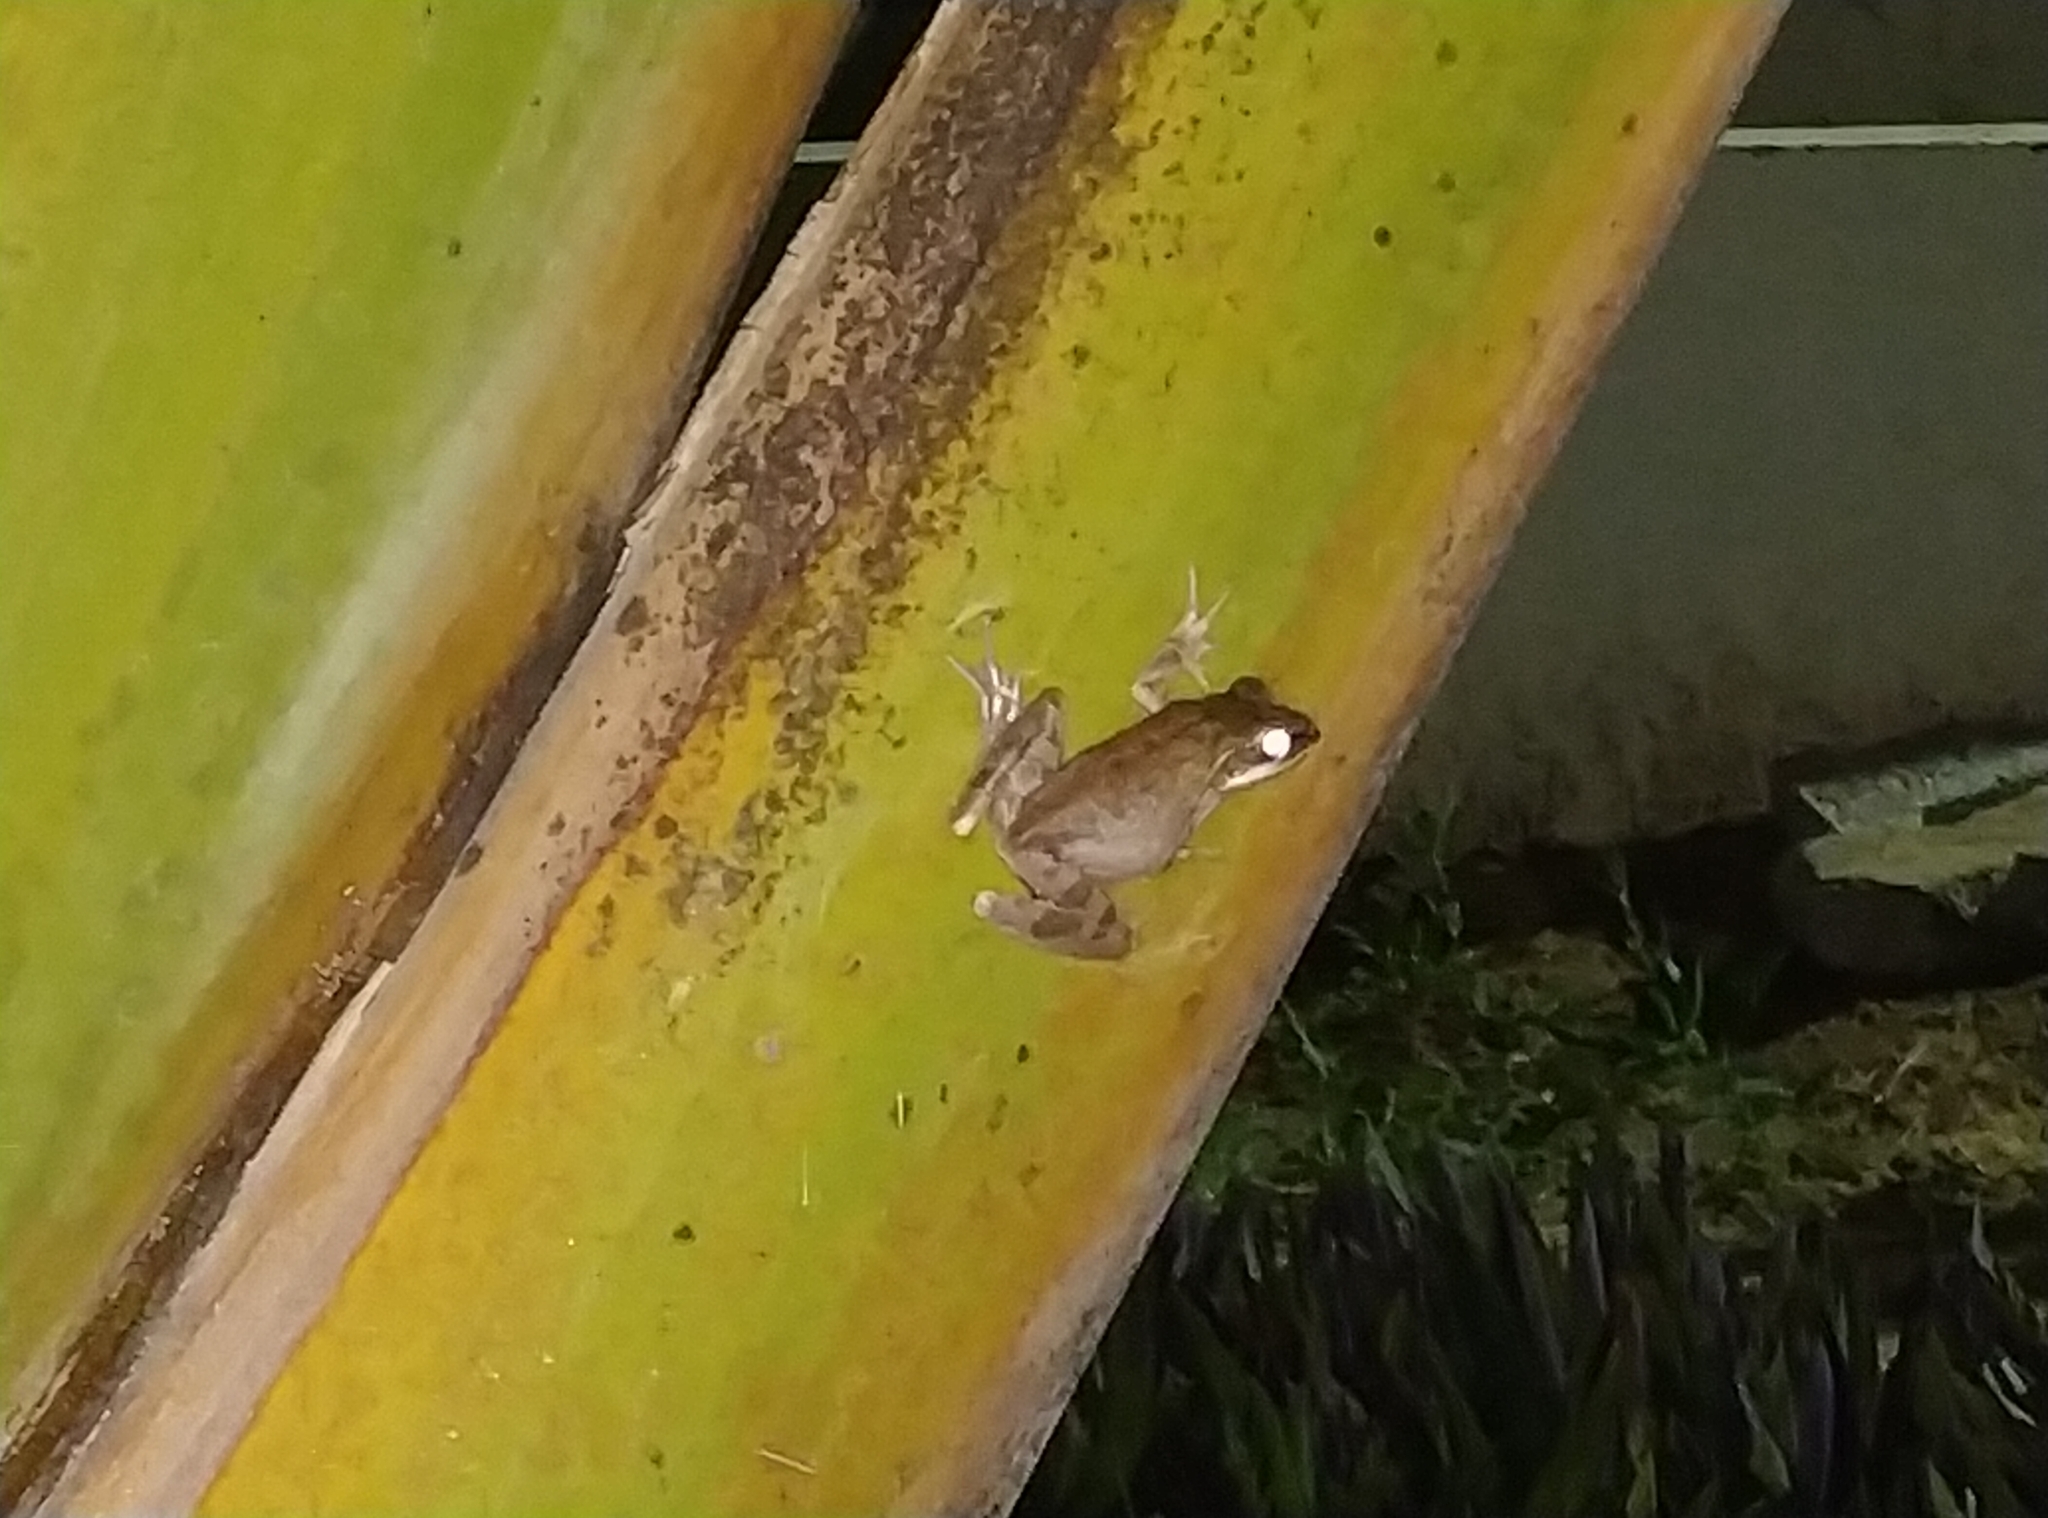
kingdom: Animalia
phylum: Chordata
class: Amphibia
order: Anura
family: Rhacophoridae
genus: Polypedates
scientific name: Polypedates maculatus
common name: Himalayan tree frog
